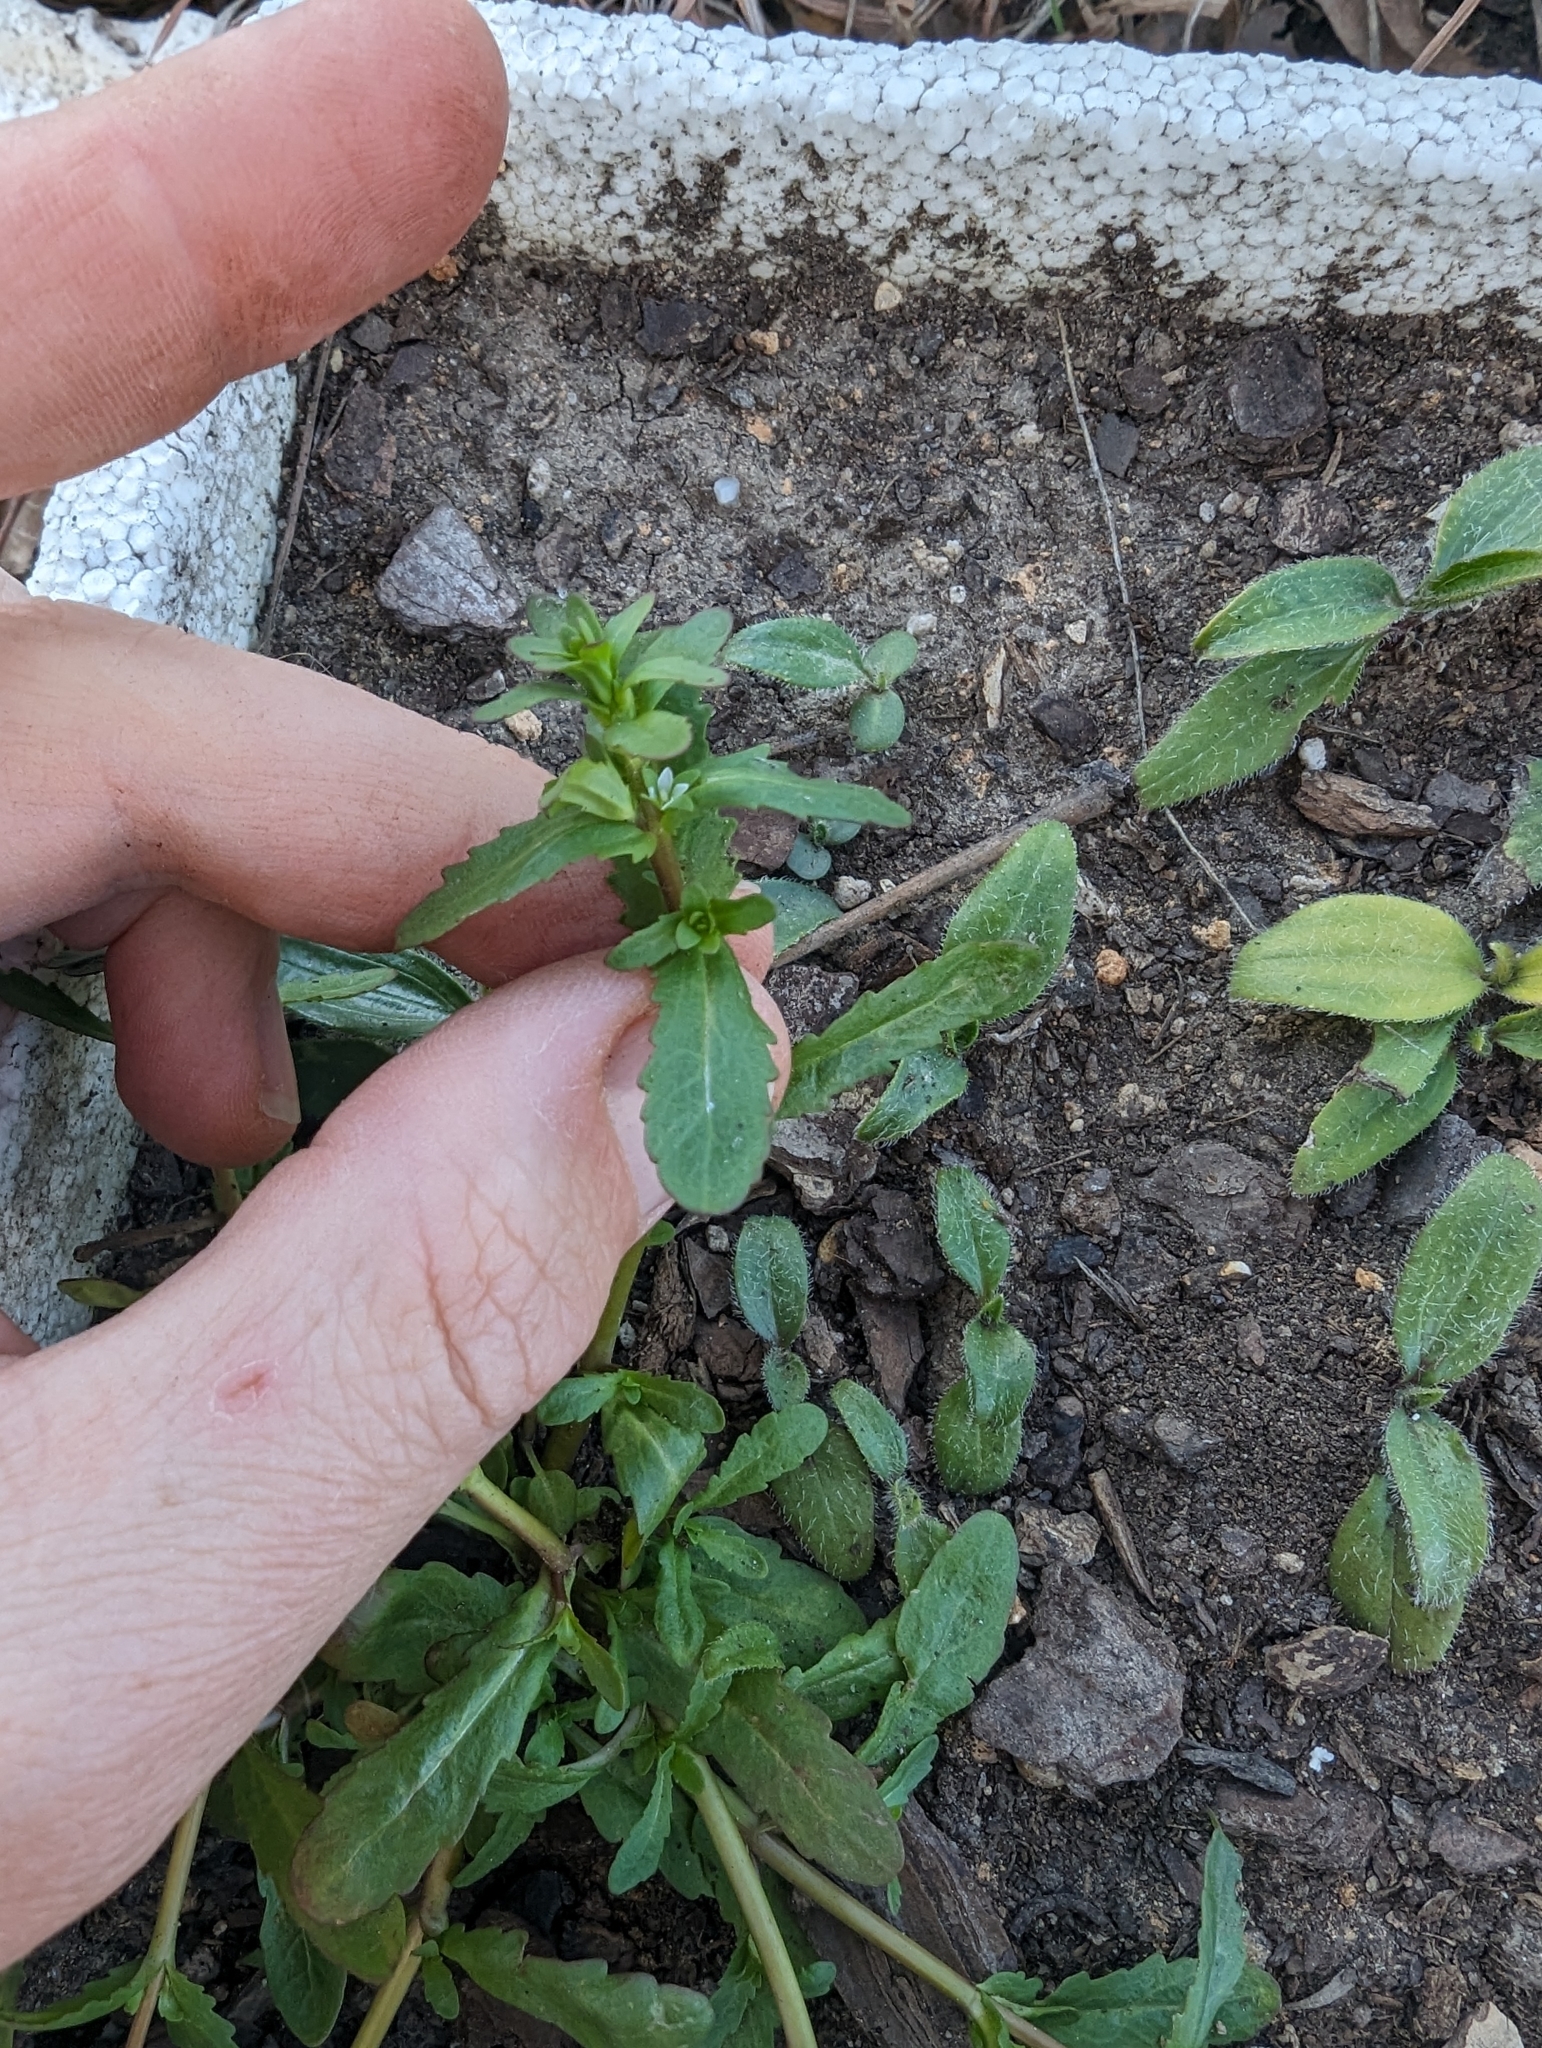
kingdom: Plantae
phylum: Tracheophyta
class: Magnoliopsida
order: Lamiales
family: Plantaginaceae
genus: Veronica
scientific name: Veronica peregrina
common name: Neckweed
